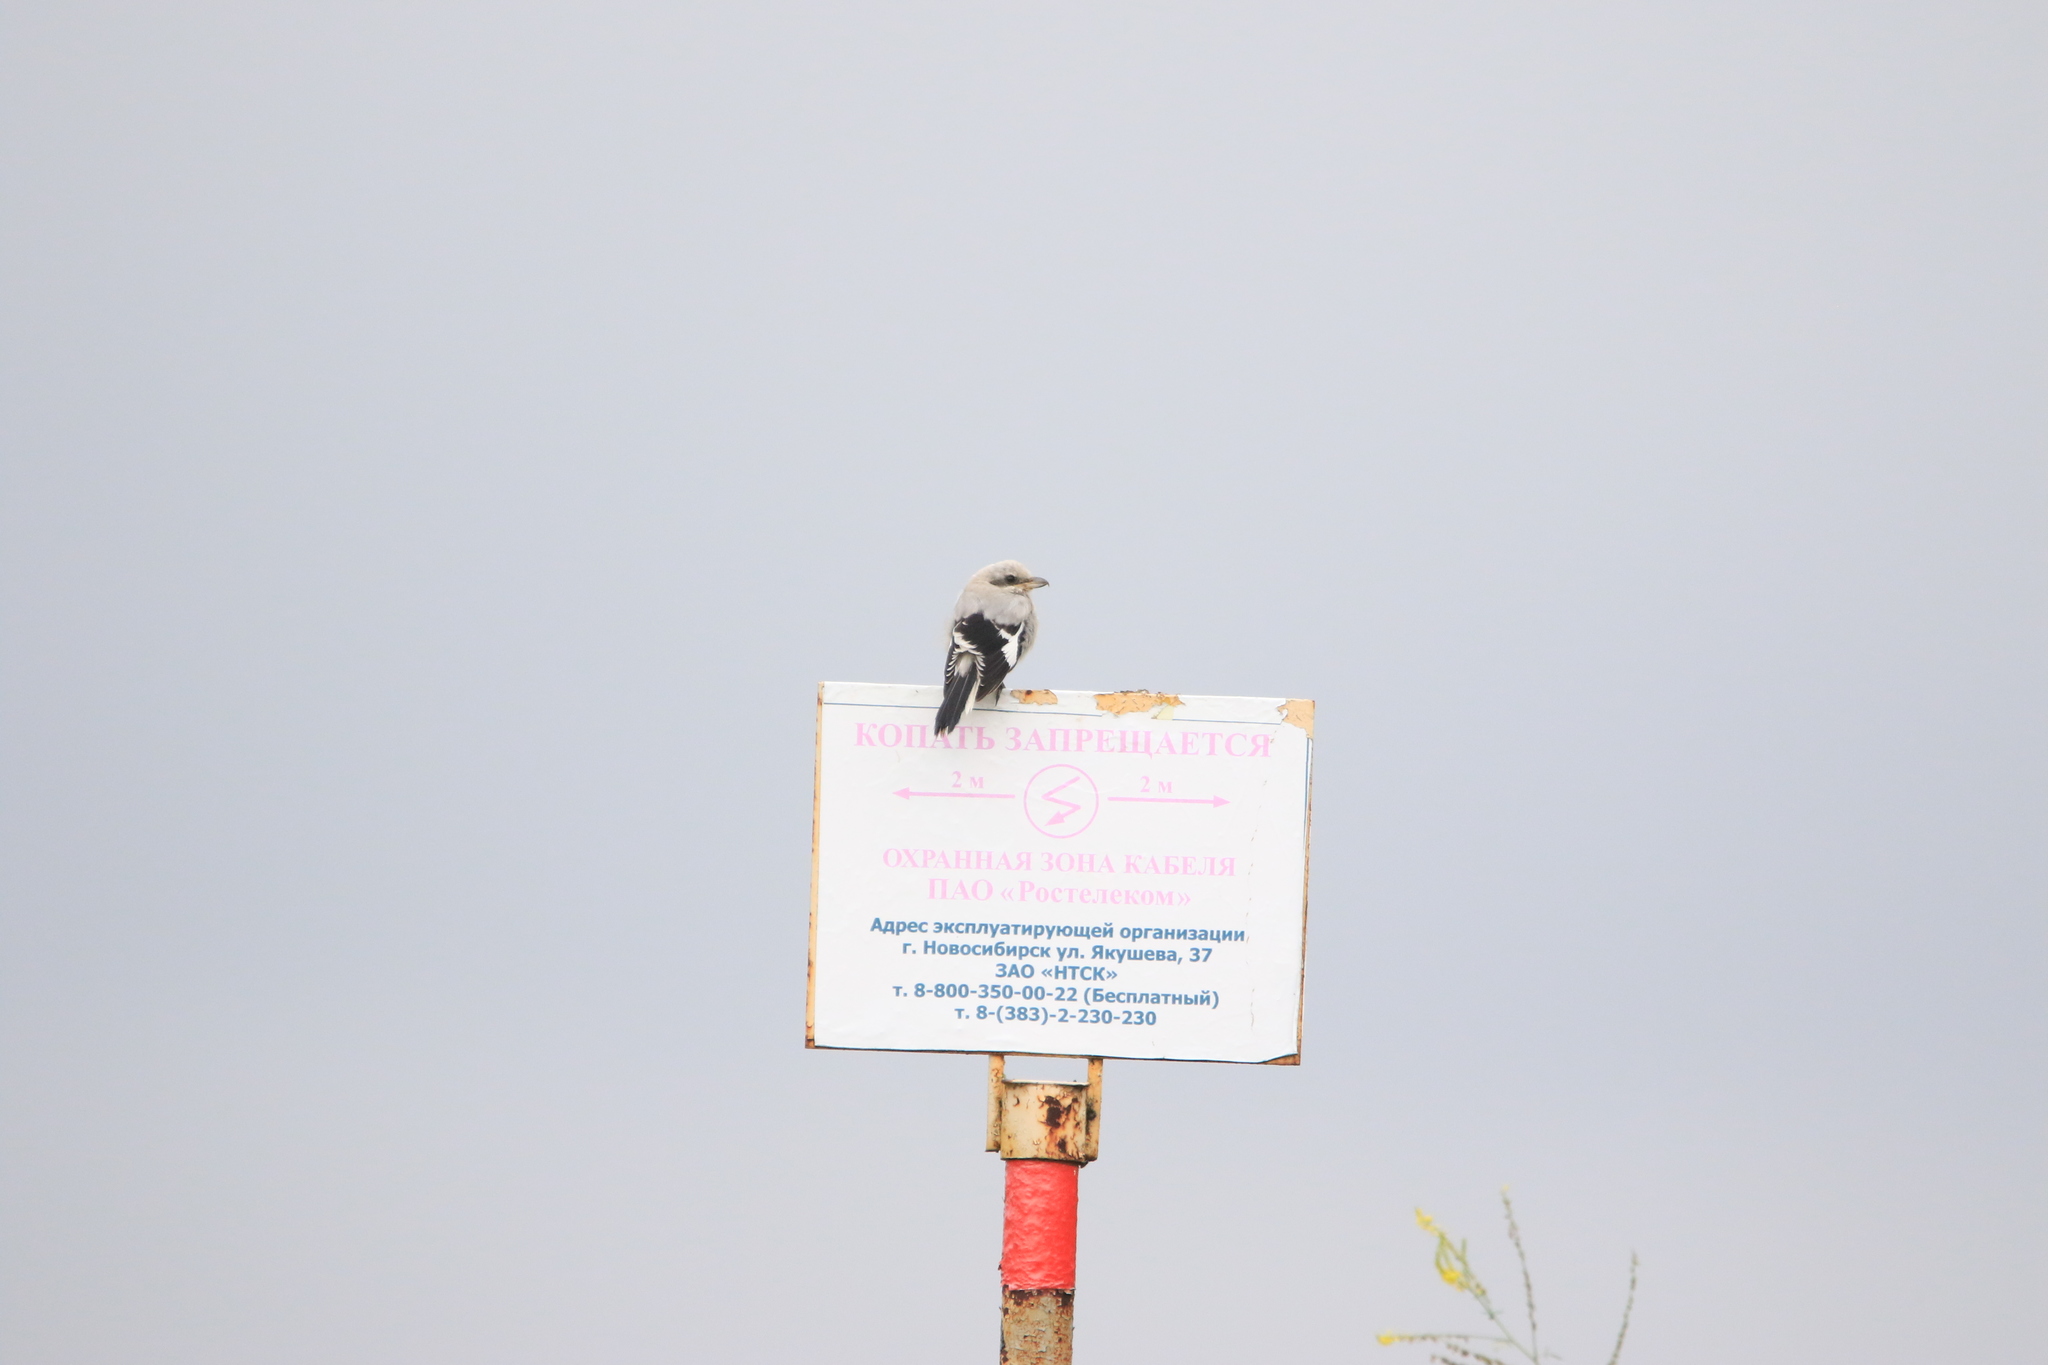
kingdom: Animalia
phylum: Chordata
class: Aves
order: Passeriformes
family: Laniidae
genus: Lanius
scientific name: Lanius excubitor
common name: Great grey shrike
